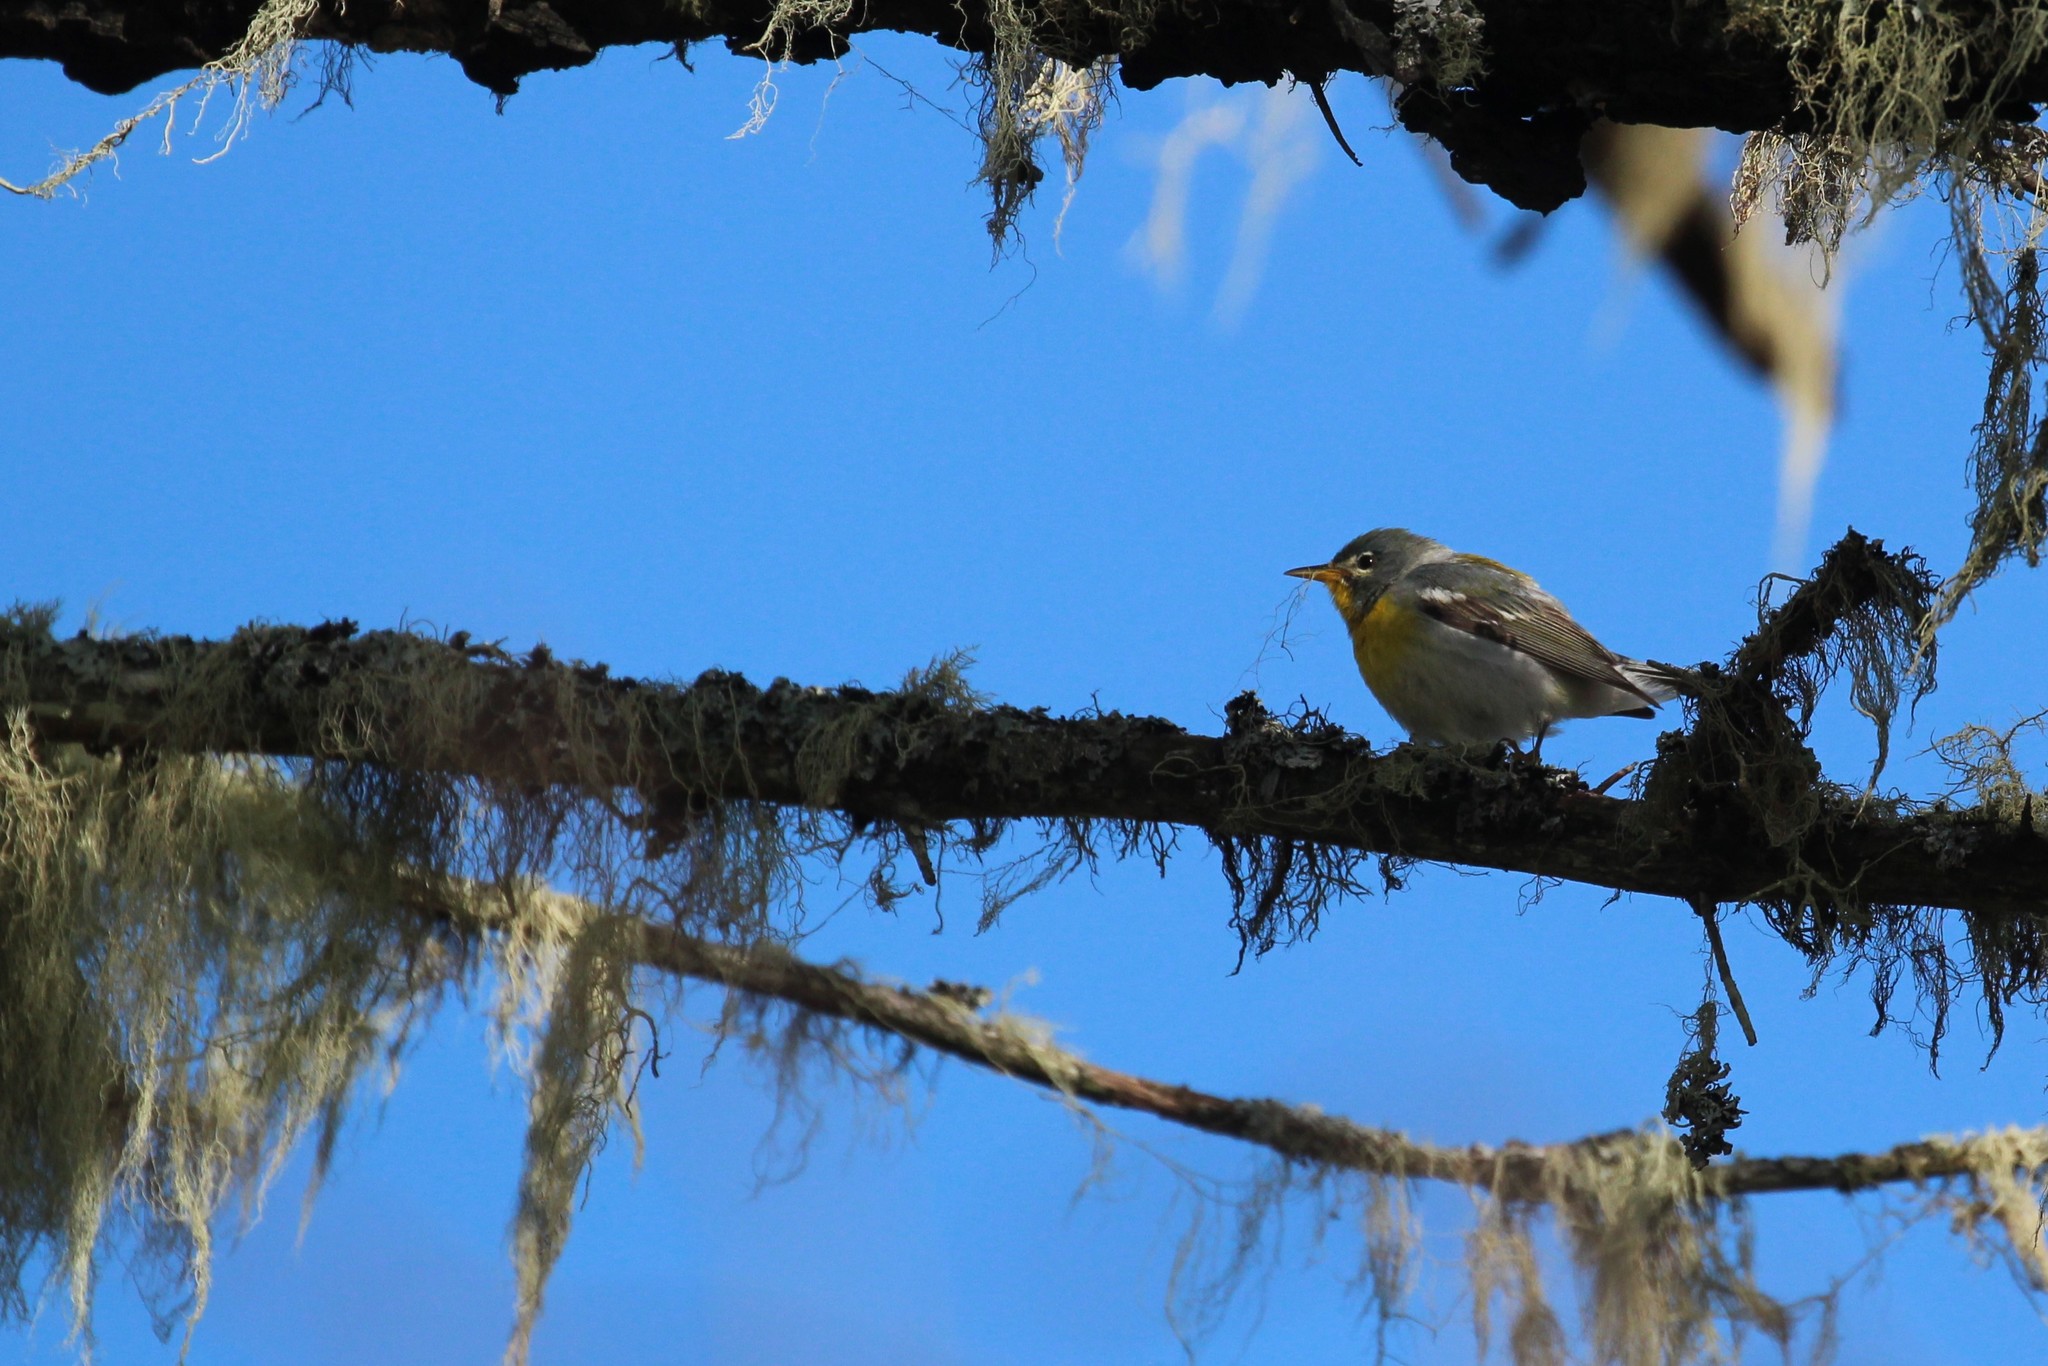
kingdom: Animalia
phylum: Chordata
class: Aves
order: Passeriformes
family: Parulidae
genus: Setophaga
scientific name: Setophaga americana
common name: Northern parula
